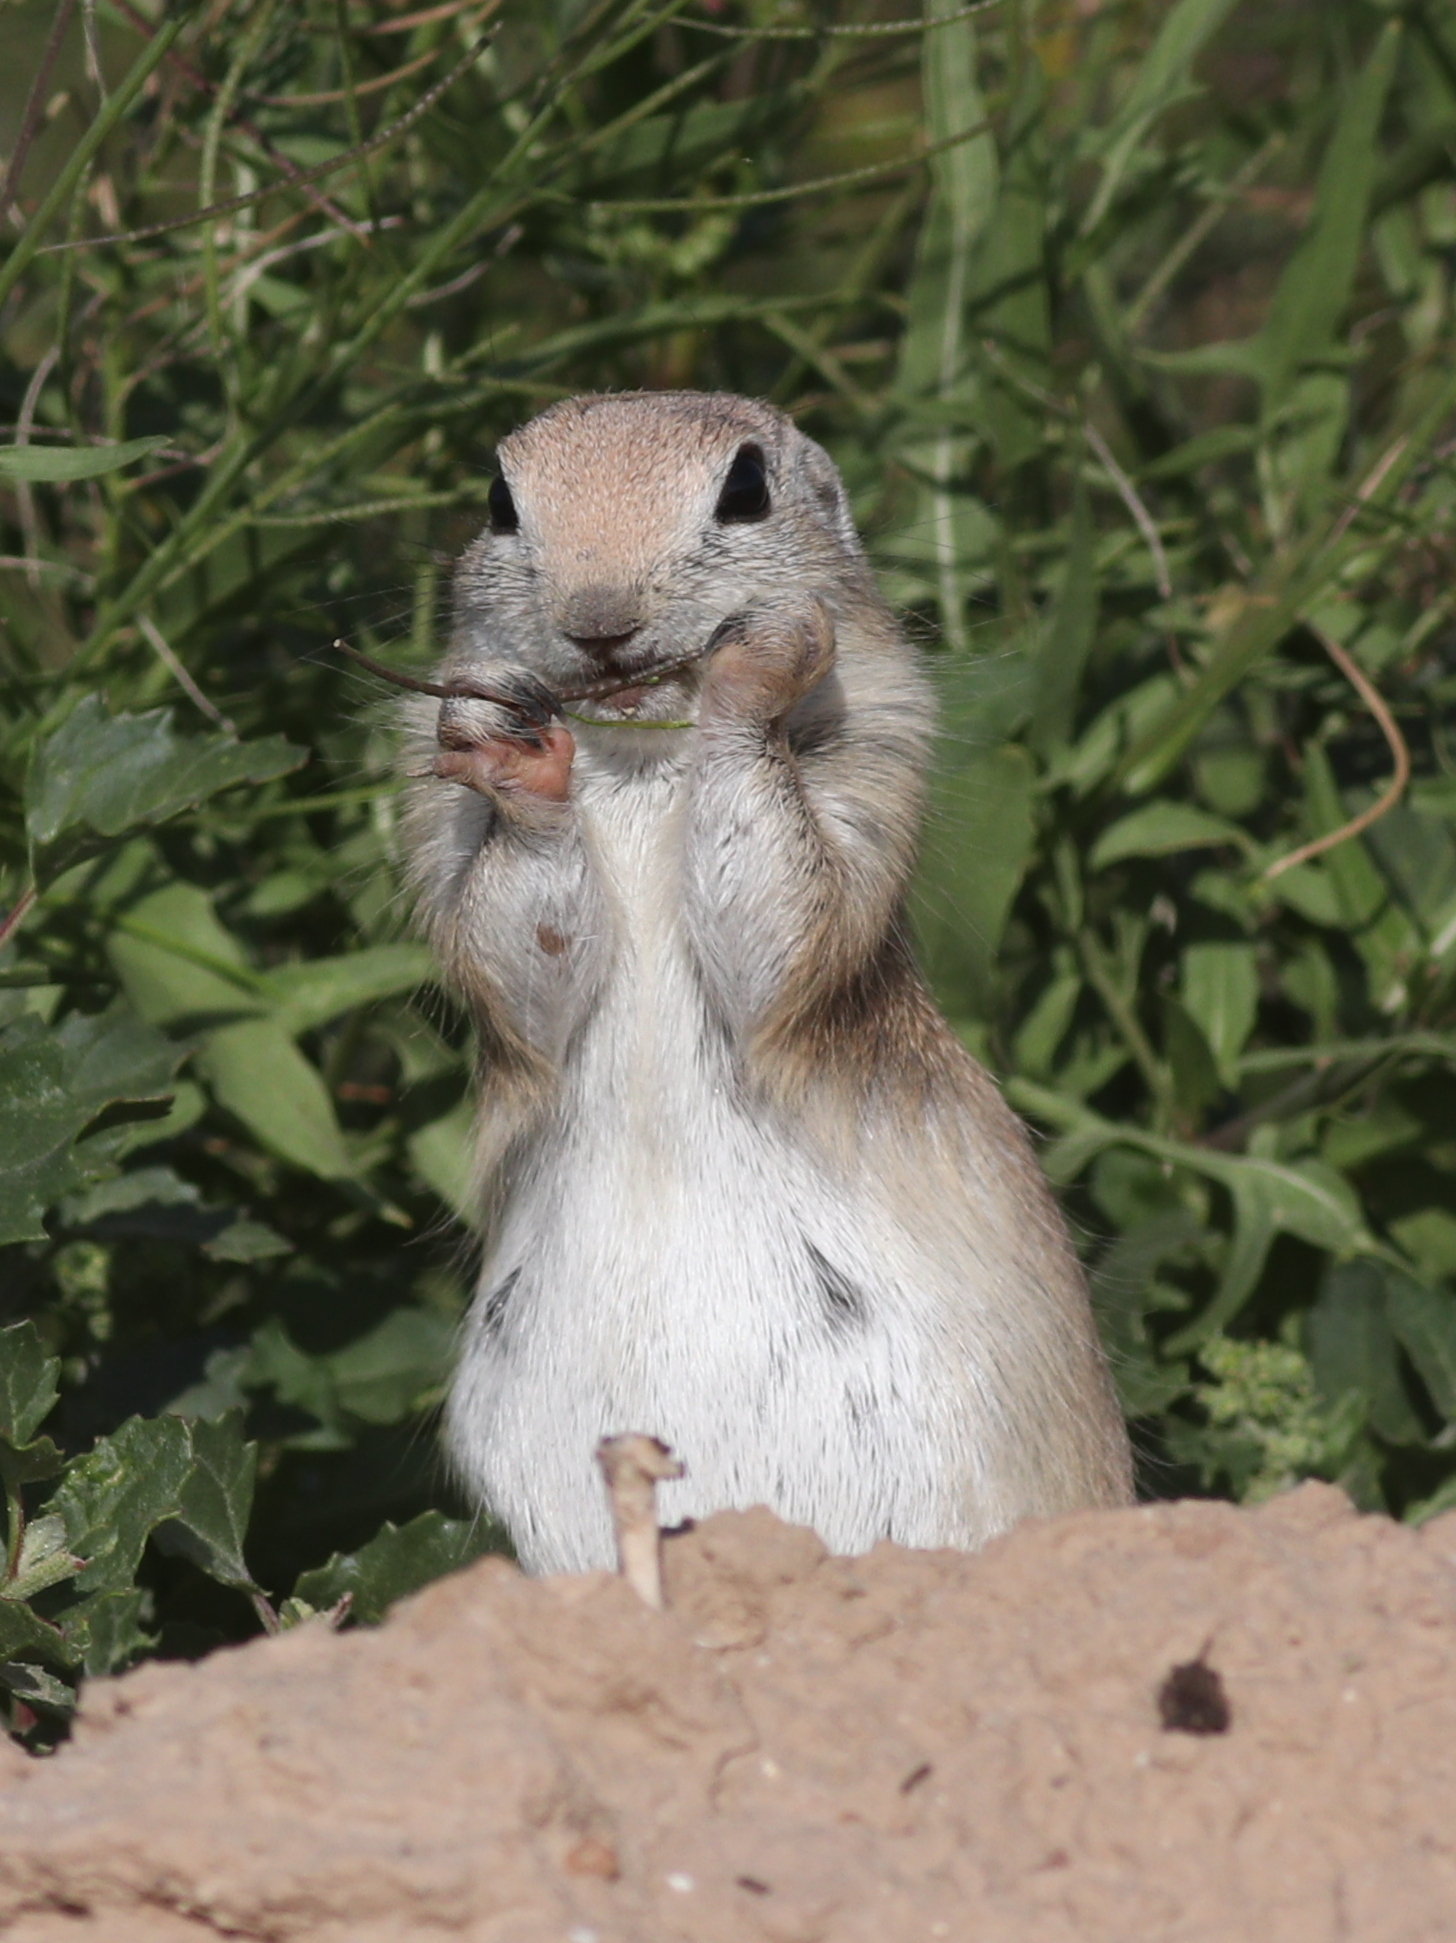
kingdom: Animalia
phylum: Chordata
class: Mammalia
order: Rodentia
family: Sciuridae
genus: Xerospermophilus
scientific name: Xerospermophilus tereticaudus
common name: Round-tailed ground squirrel
